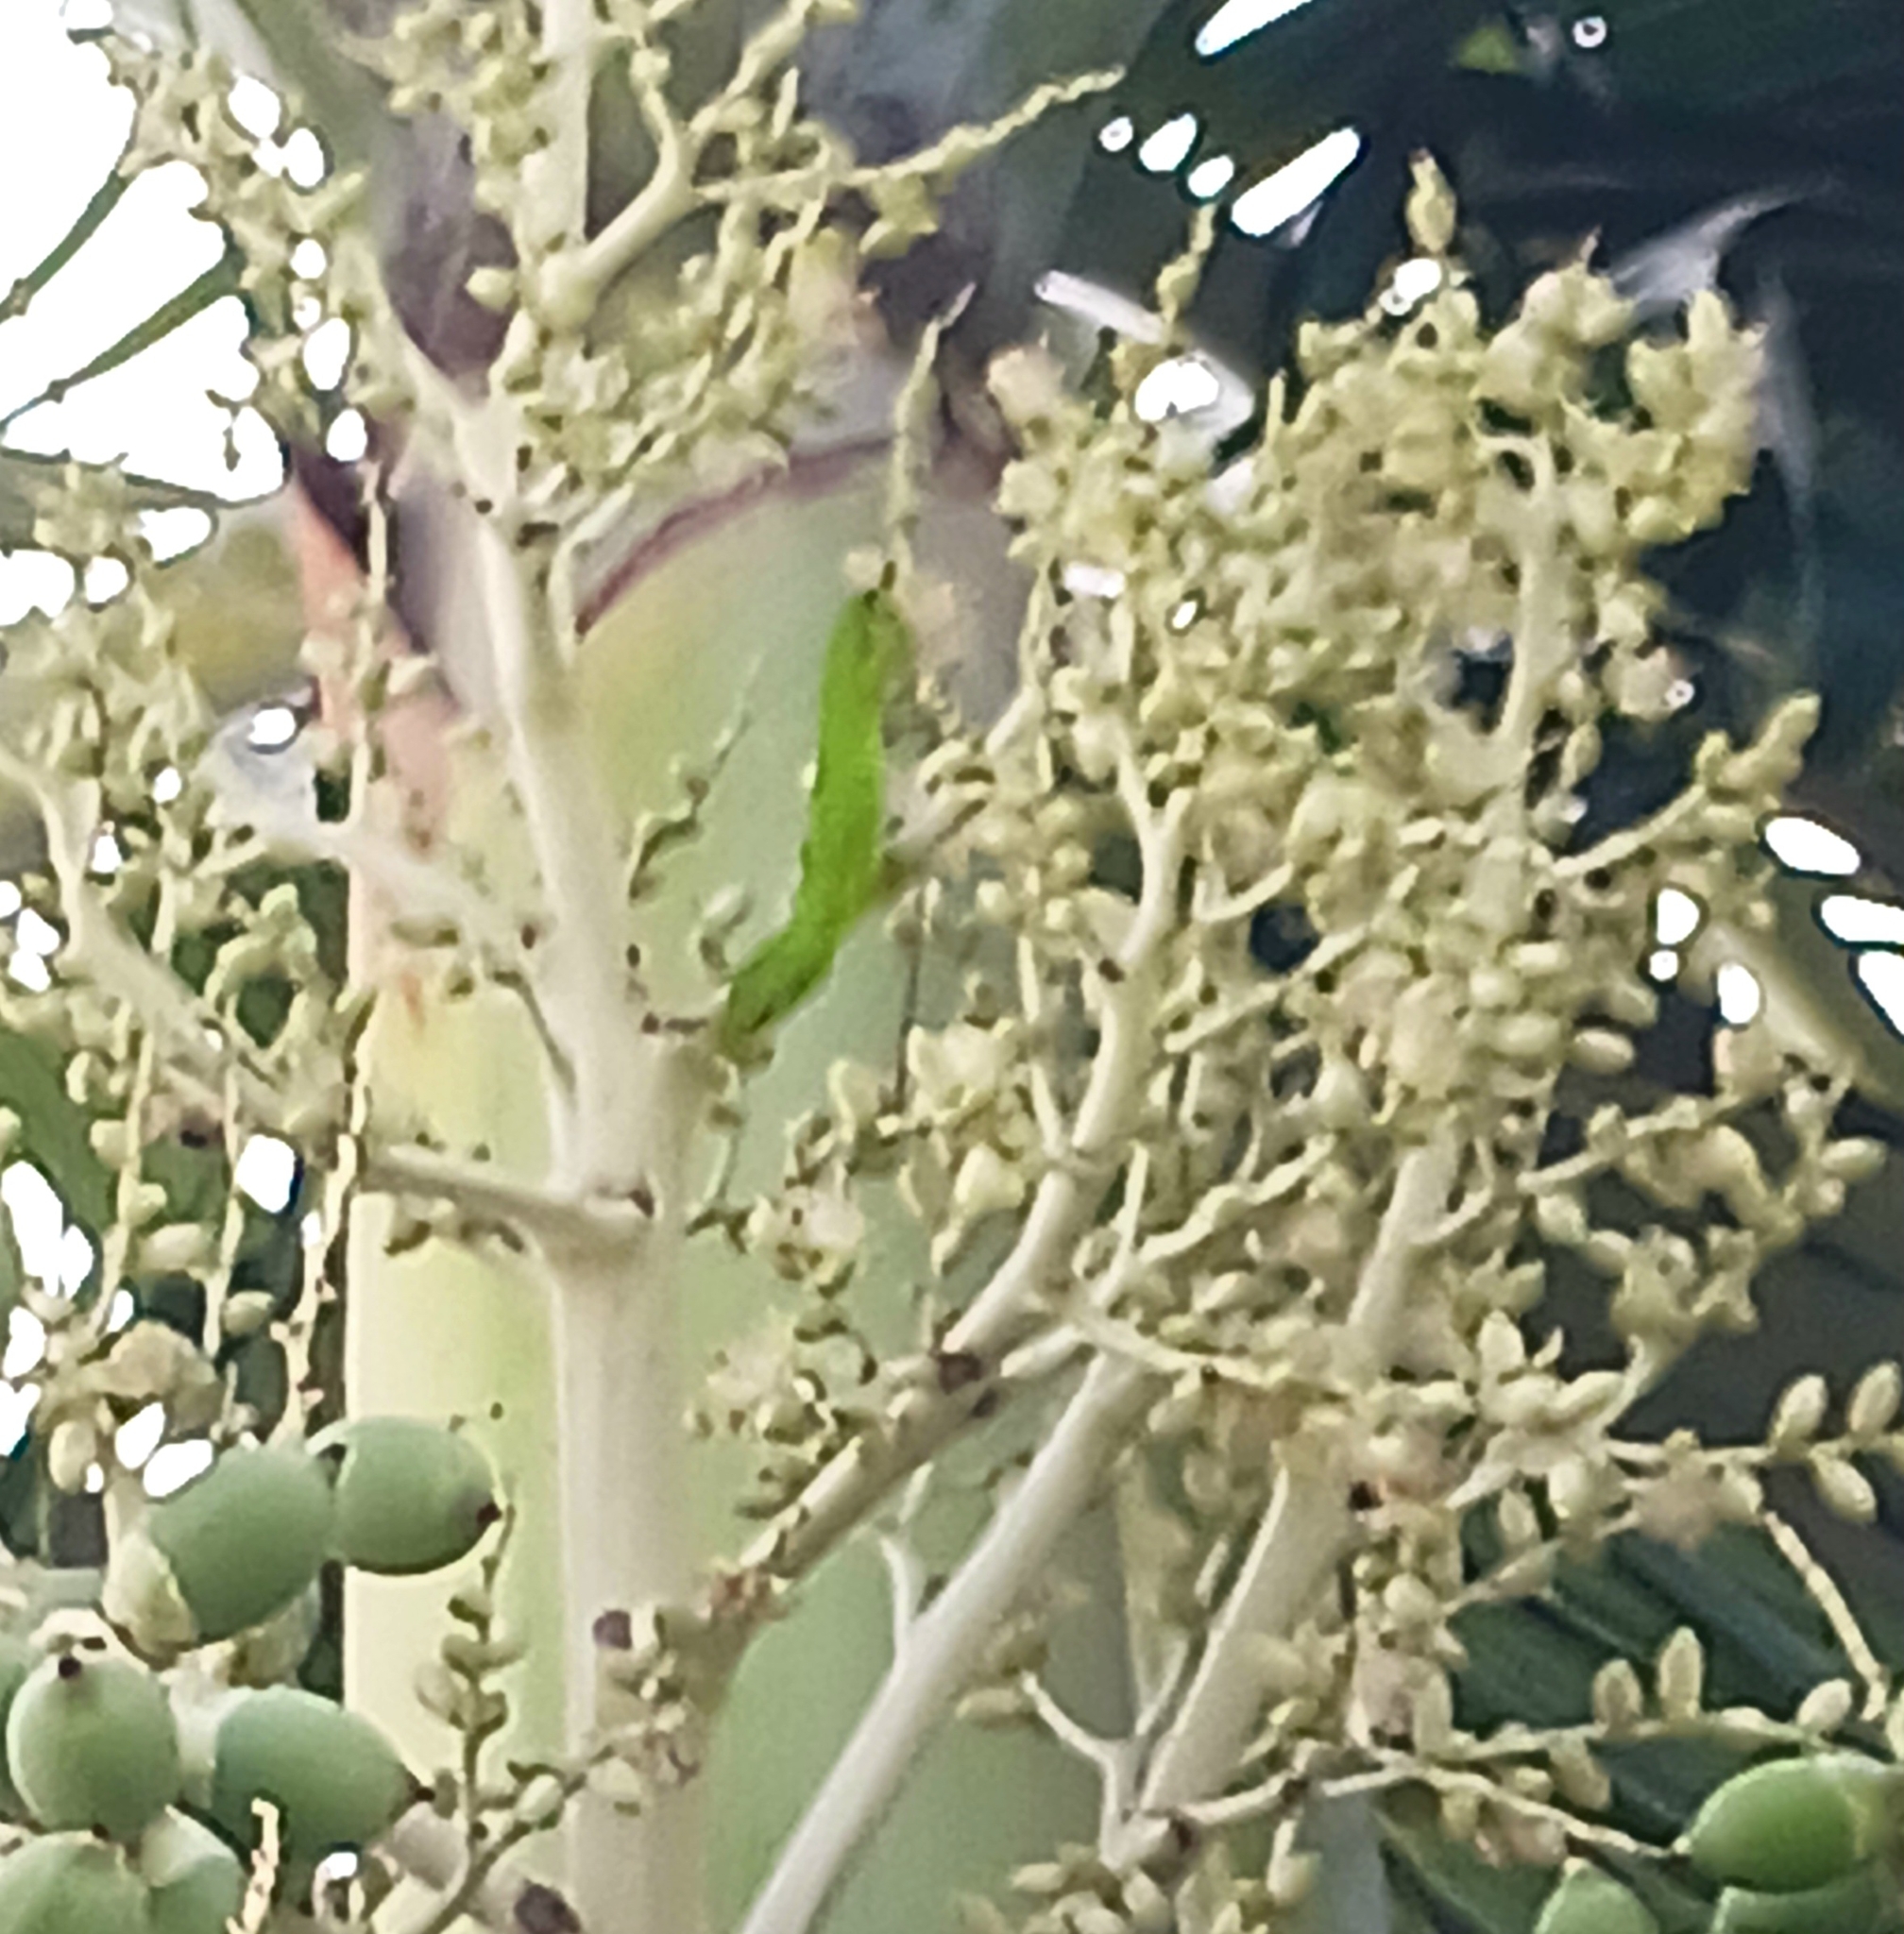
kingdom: Animalia
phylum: Chordata
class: Squamata
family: Dactyloidae
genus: Anolis
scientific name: Anolis carolinensis
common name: Green anole
